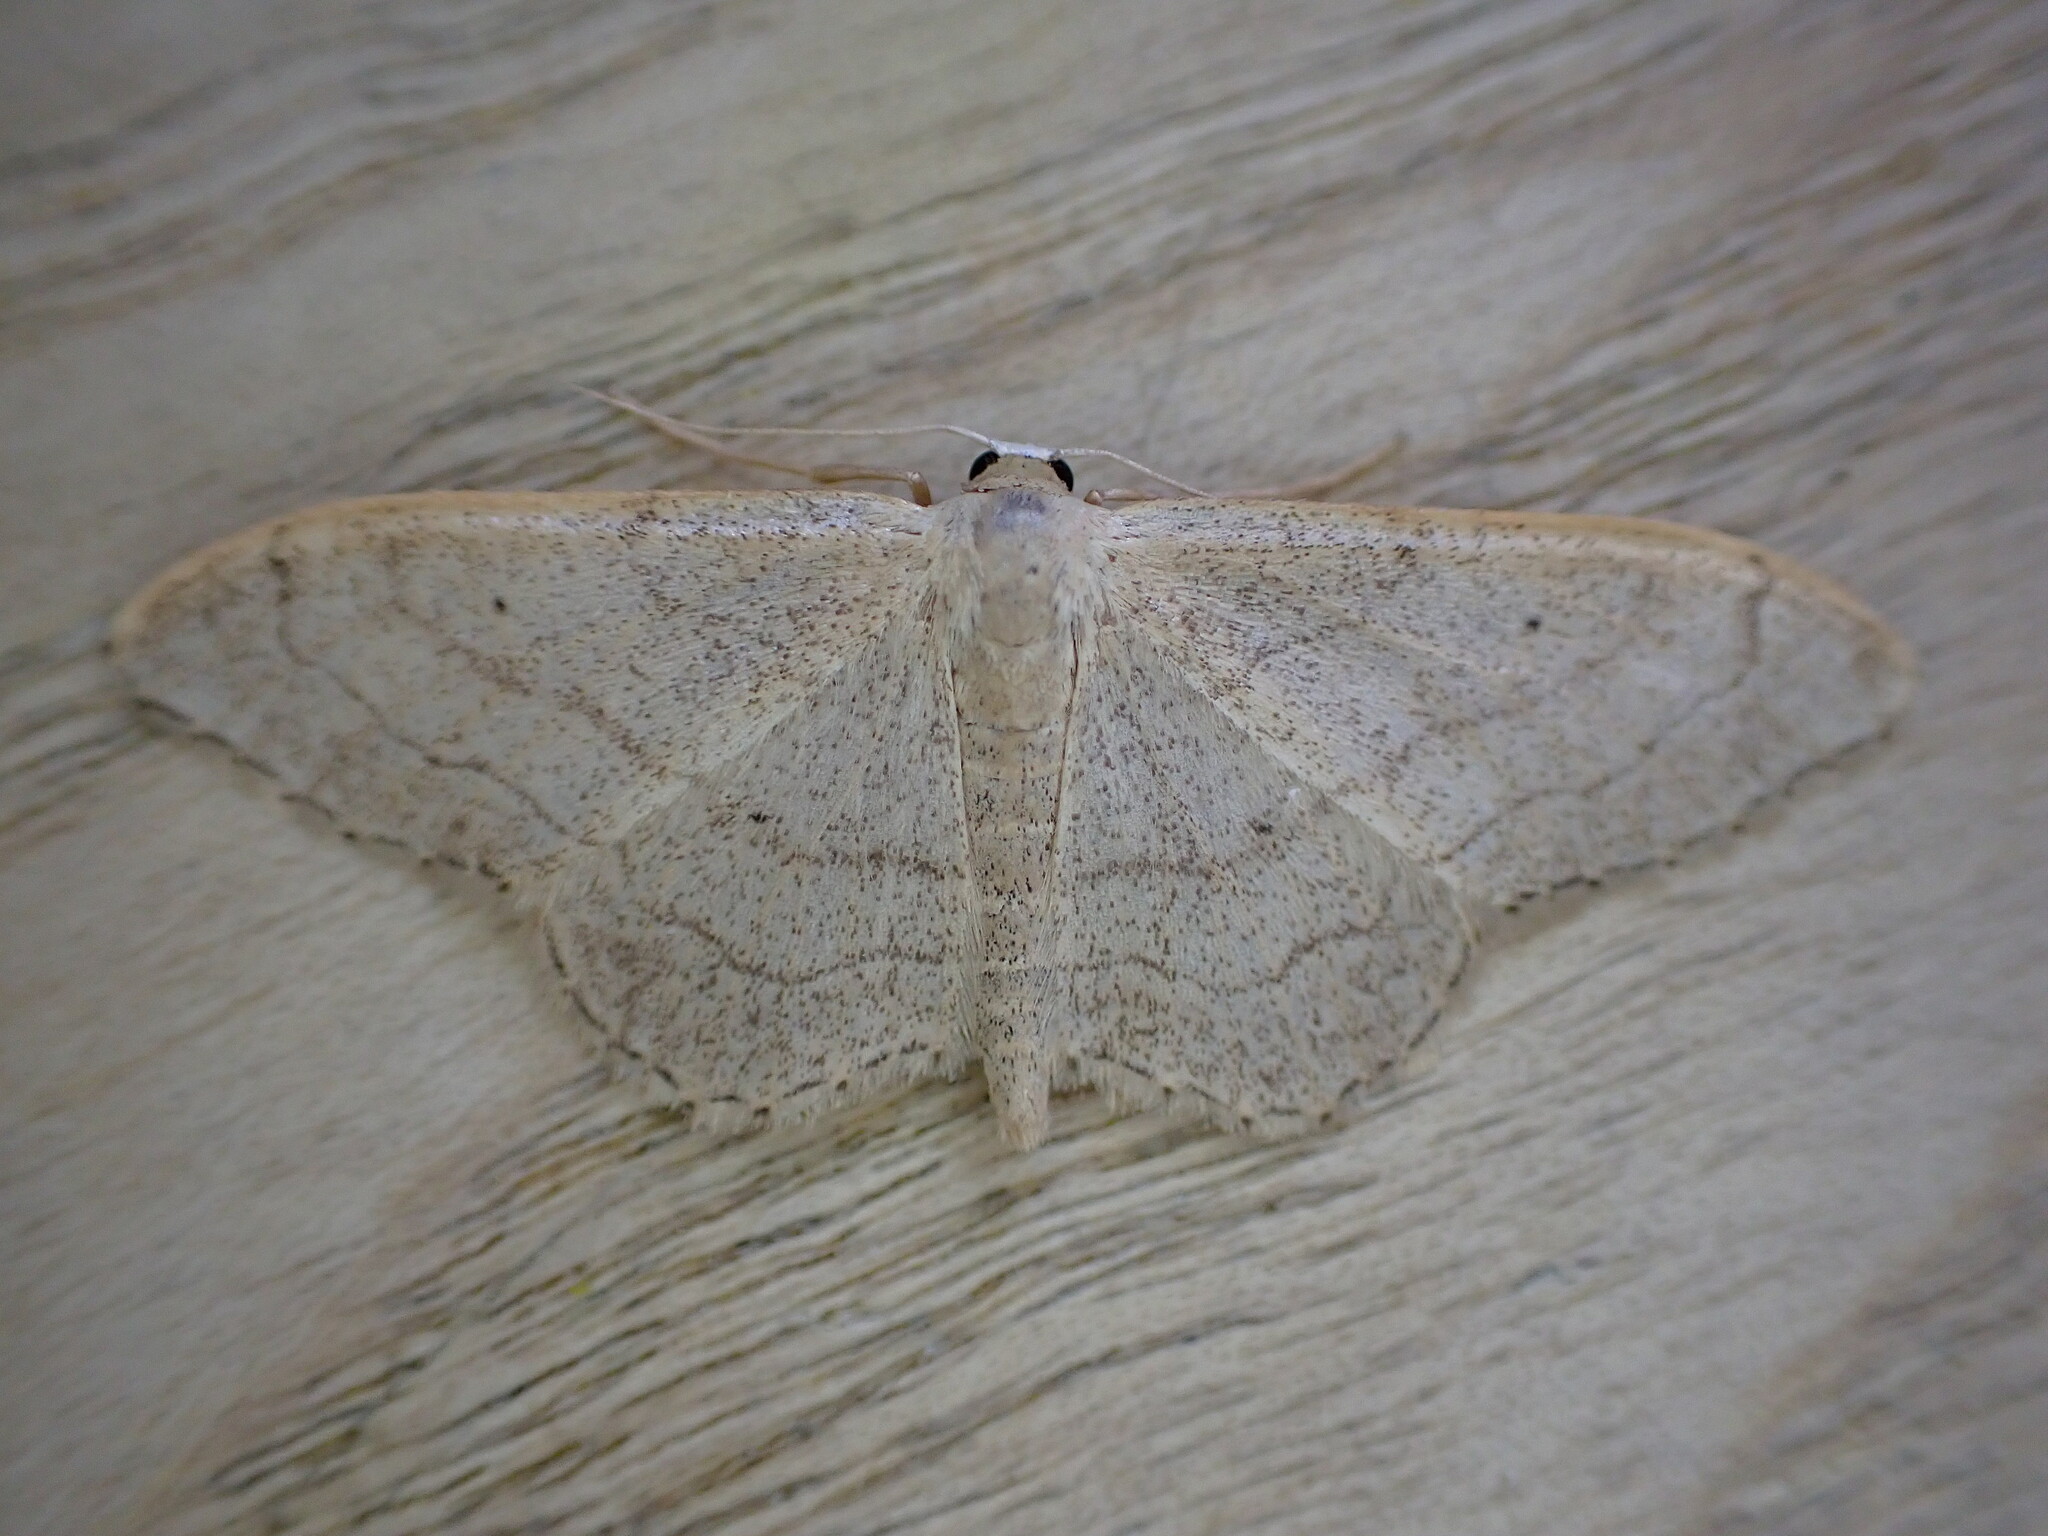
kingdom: Animalia
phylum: Arthropoda
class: Insecta
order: Lepidoptera
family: Geometridae
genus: Idaea
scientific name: Idaea aversata
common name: Riband wave
